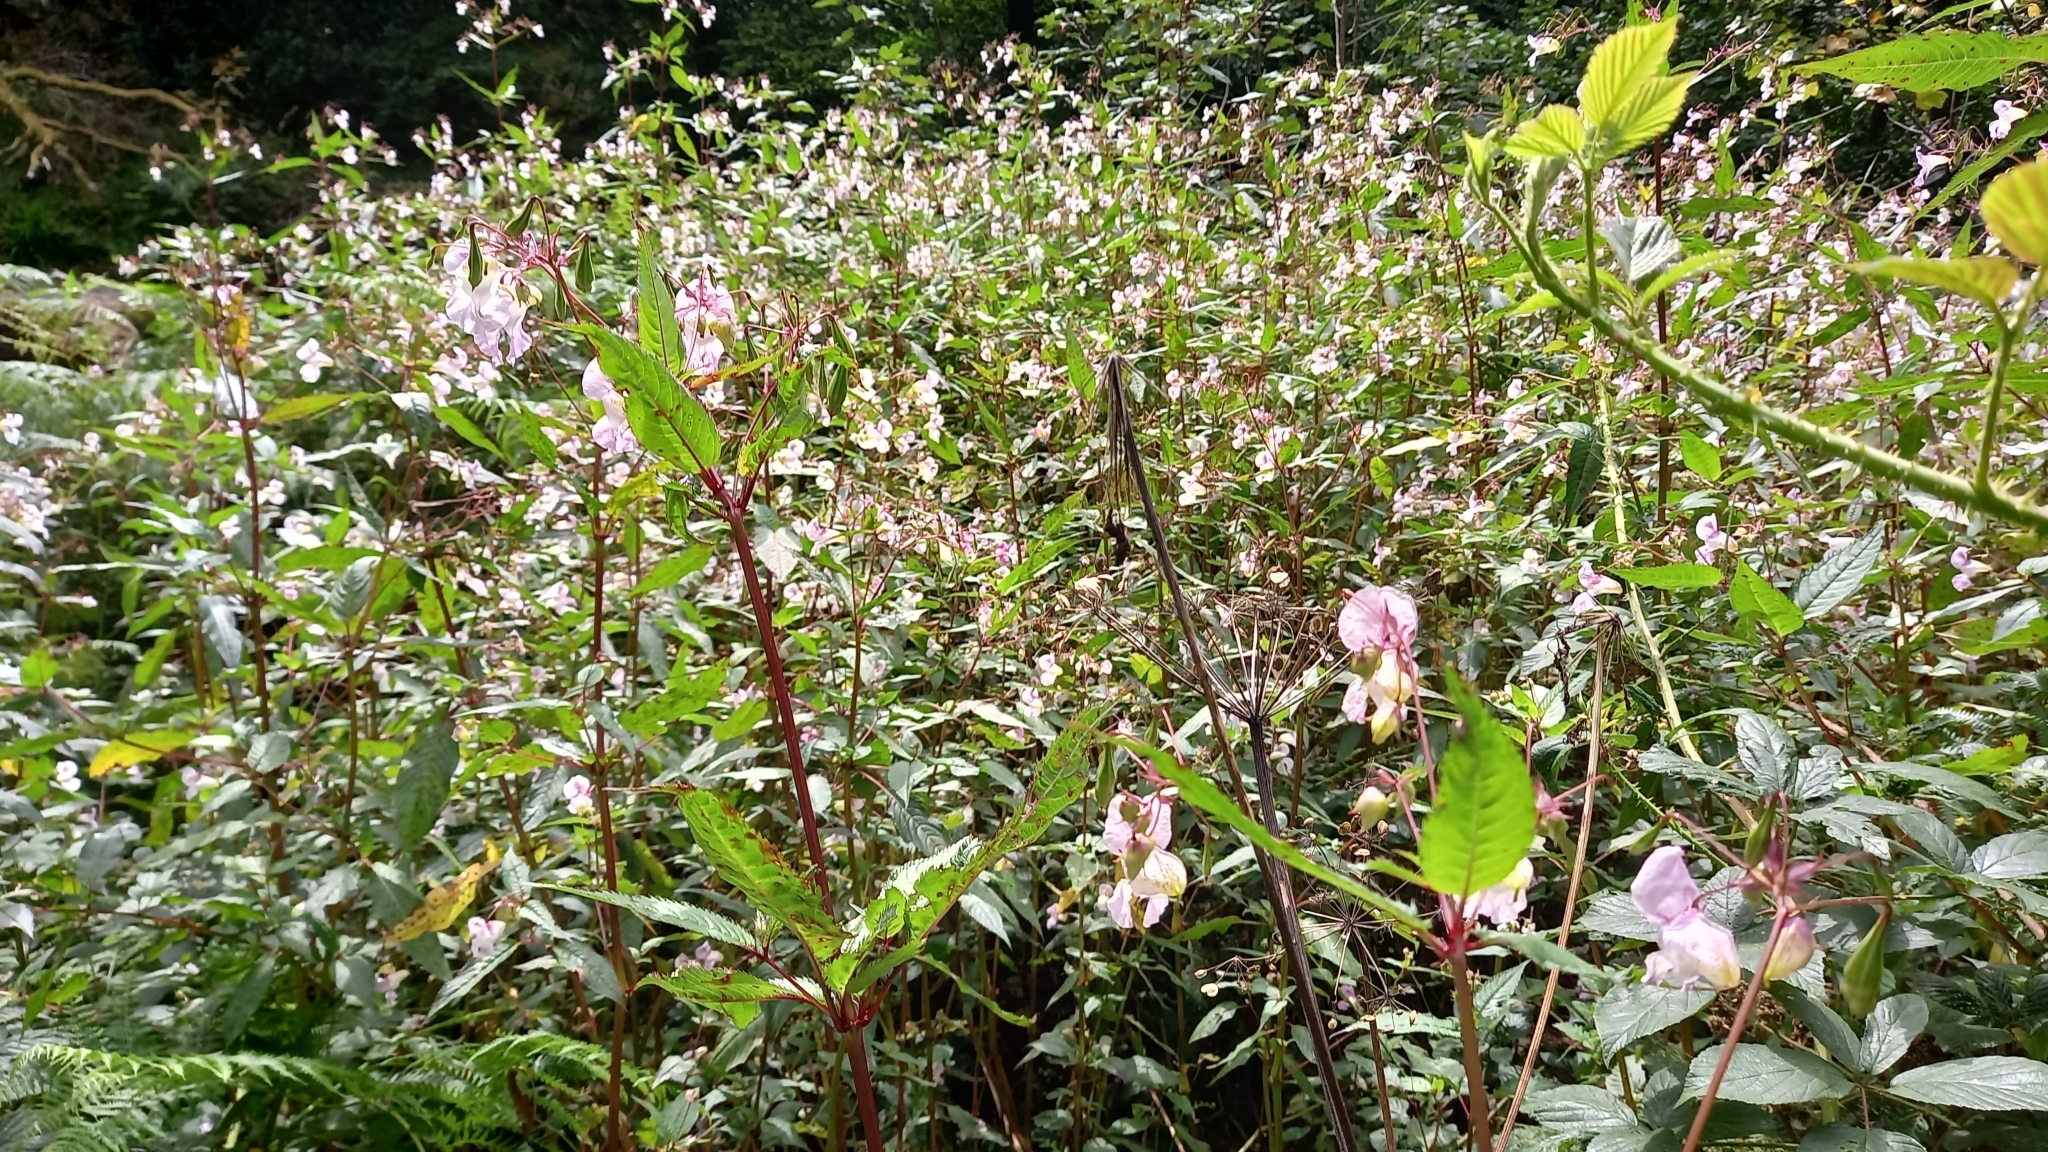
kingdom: Plantae
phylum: Tracheophyta
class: Magnoliopsida
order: Ericales
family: Balsaminaceae
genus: Impatiens
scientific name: Impatiens glandulifera
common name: Himalayan balsam
